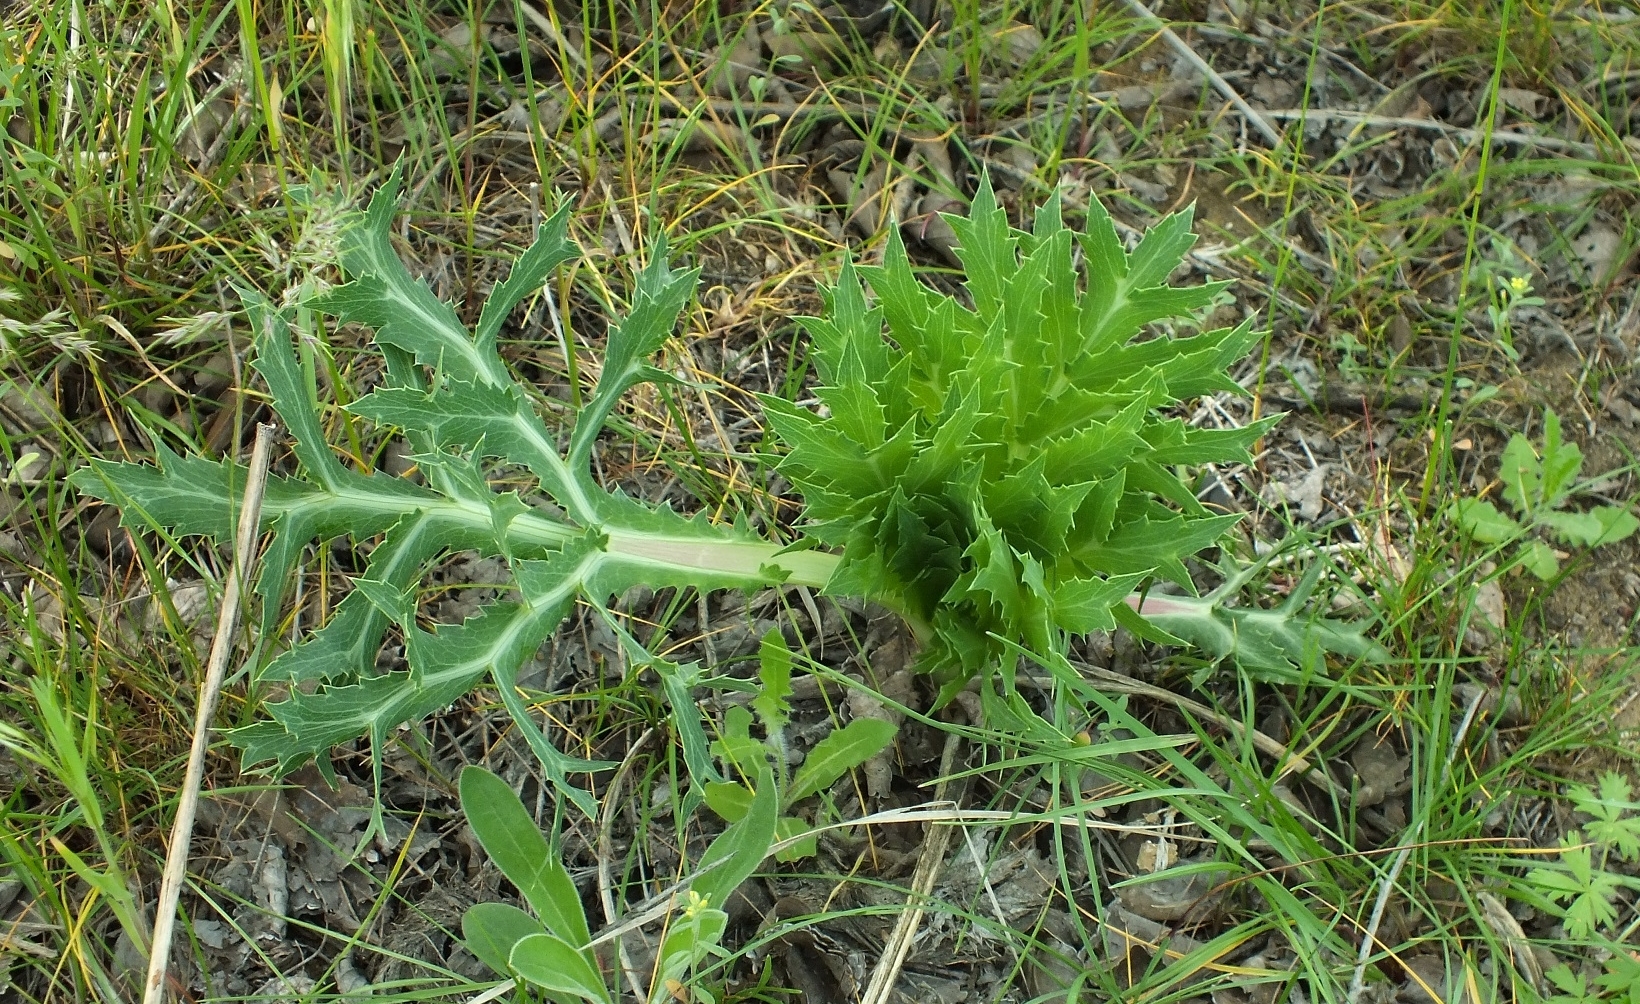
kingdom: Plantae
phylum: Tracheophyta
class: Magnoliopsida
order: Apiales
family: Apiaceae
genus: Eryngium
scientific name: Eryngium campestre
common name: Field eryngo
